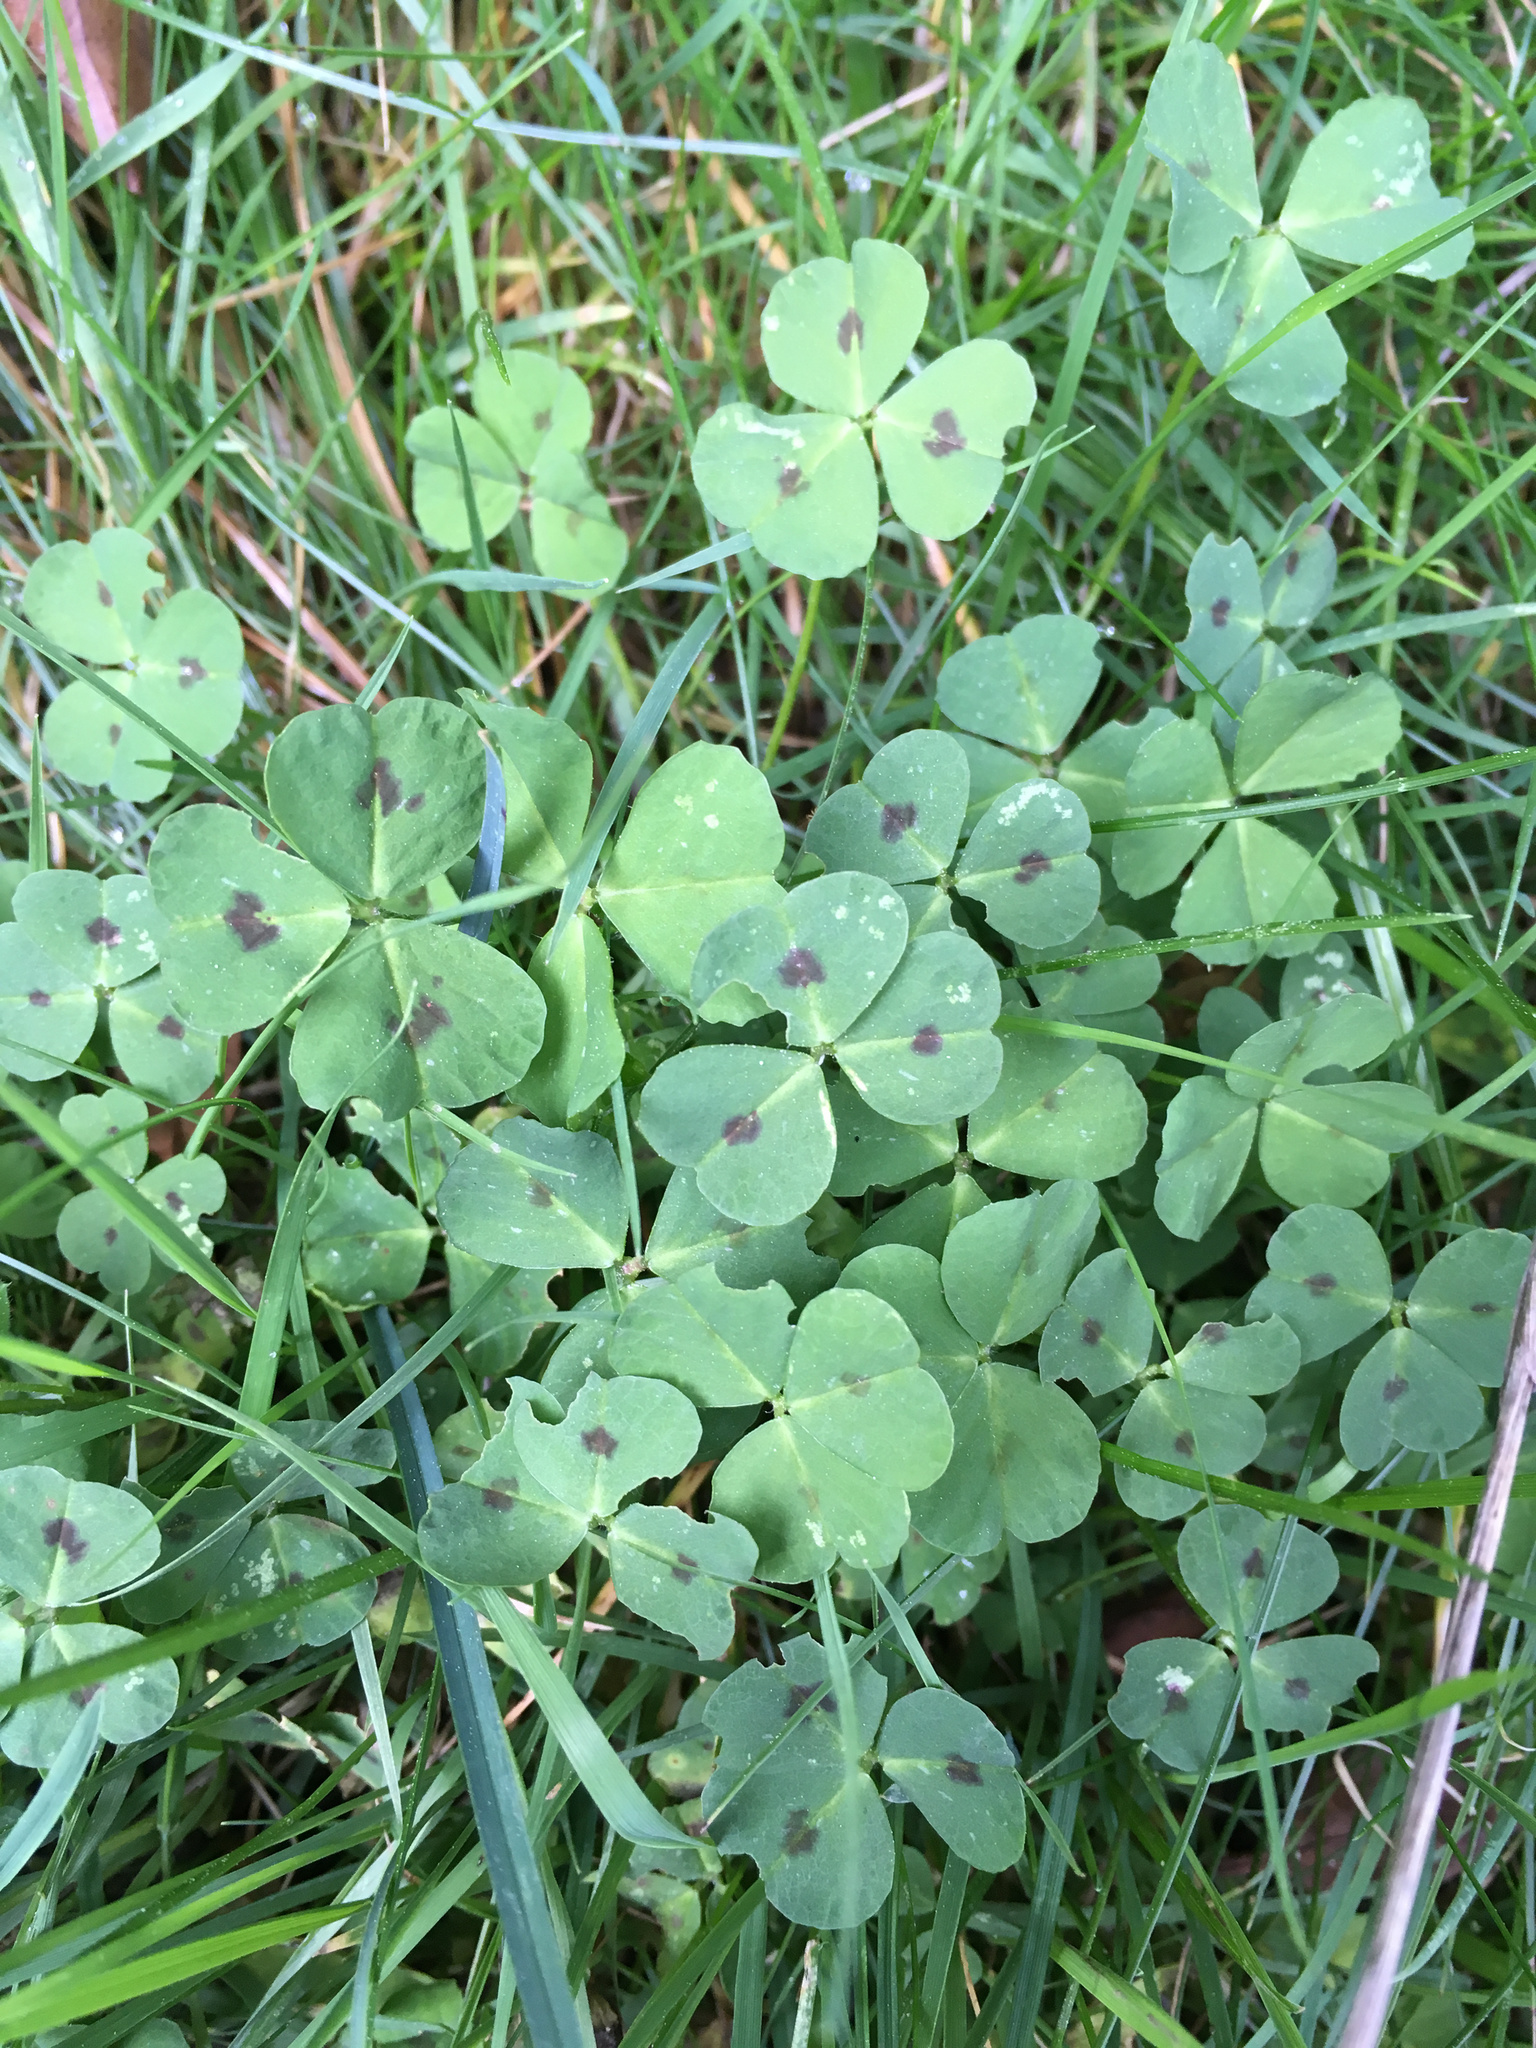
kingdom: Plantae
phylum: Tracheophyta
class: Magnoliopsida
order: Fabales
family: Fabaceae
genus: Medicago
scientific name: Medicago arabica
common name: Spotted medick
